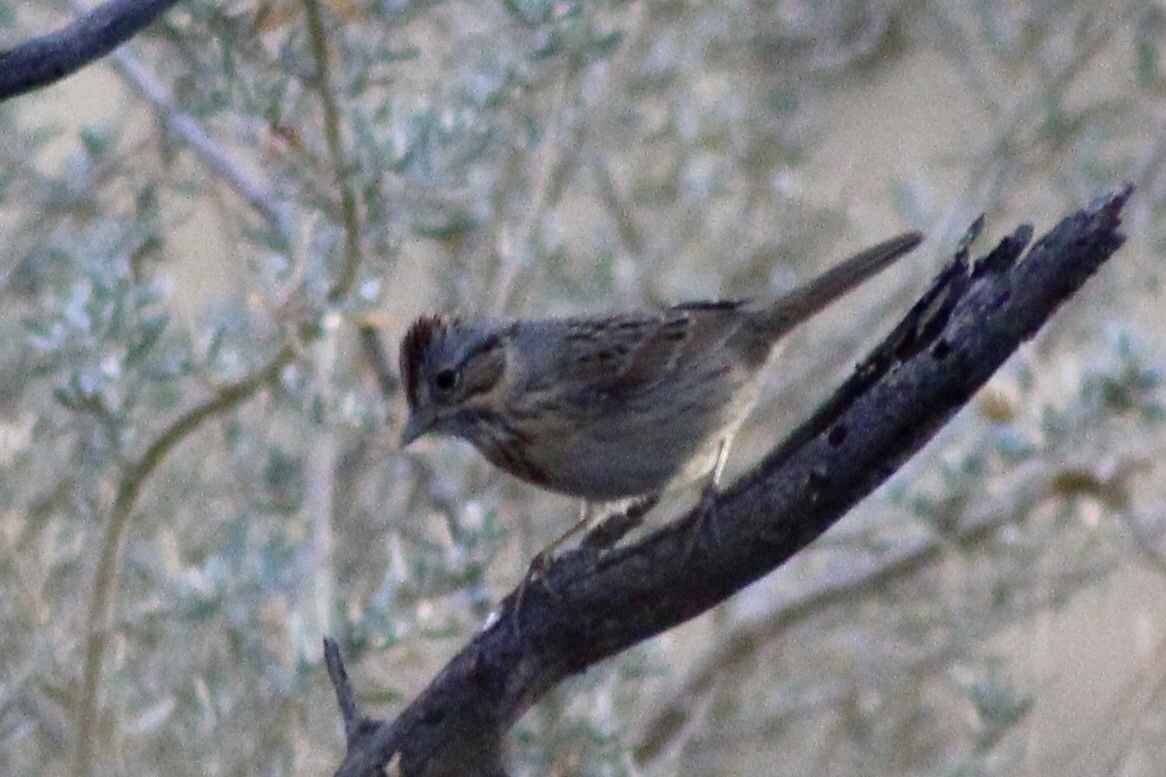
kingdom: Animalia
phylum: Chordata
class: Aves
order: Passeriformes
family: Passerellidae
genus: Melospiza
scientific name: Melospiza lincolnii
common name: Lincoln's sparrow
